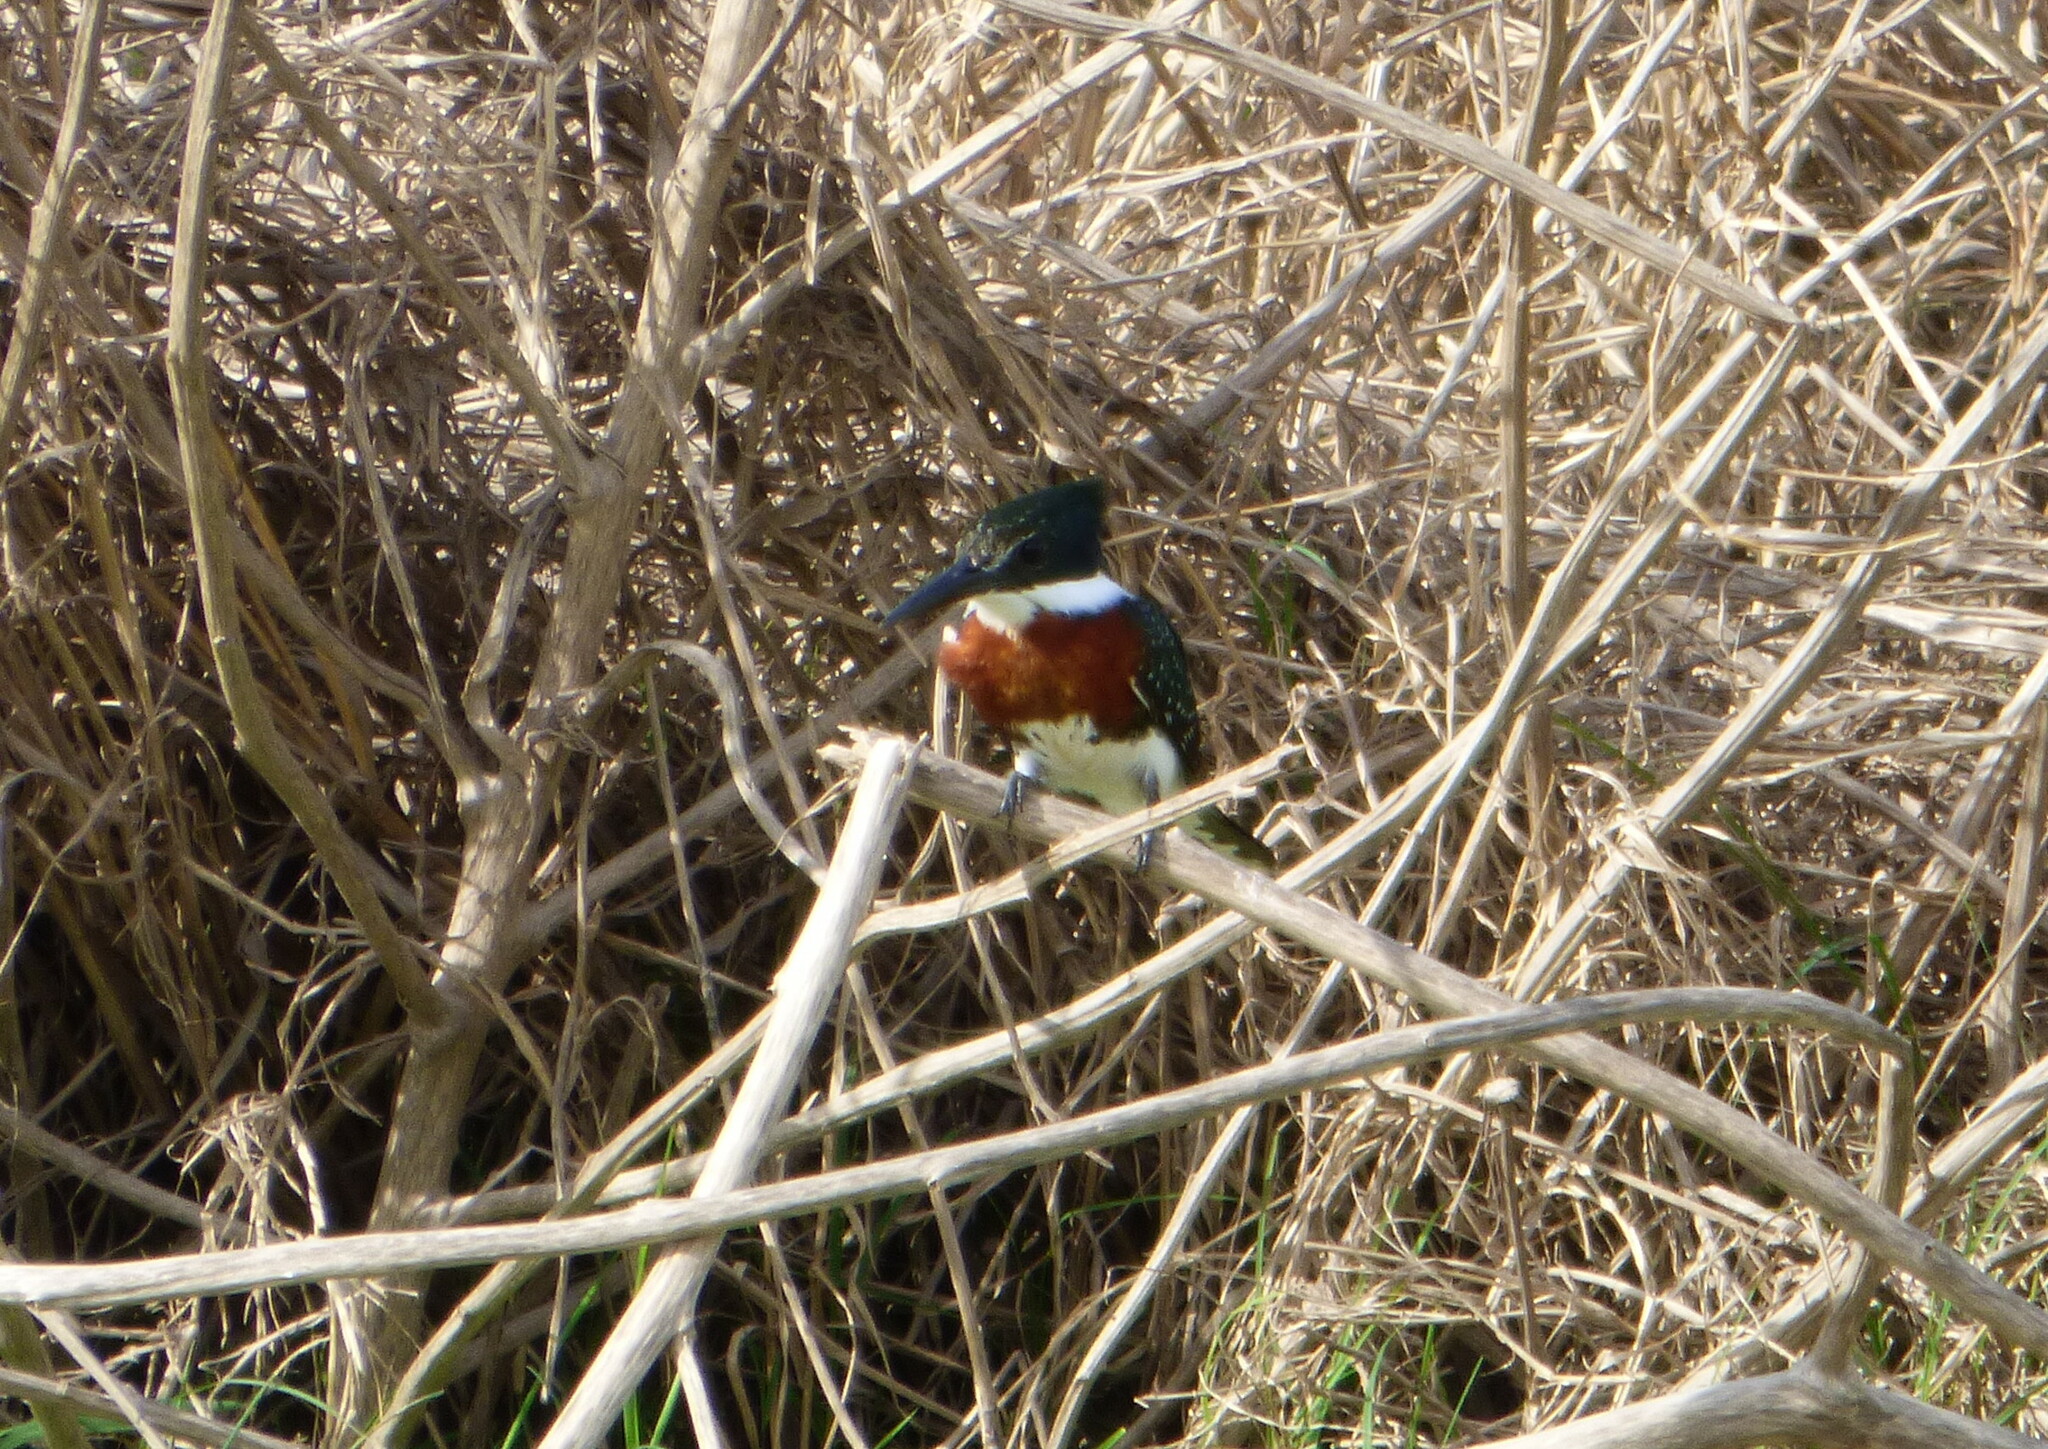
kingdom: Animalia
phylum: Chordata
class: Aves
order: Coraciiformes
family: Alcedinidae
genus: Chloroceryle
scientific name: Chloroceryle americana
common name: Green kingfisher
